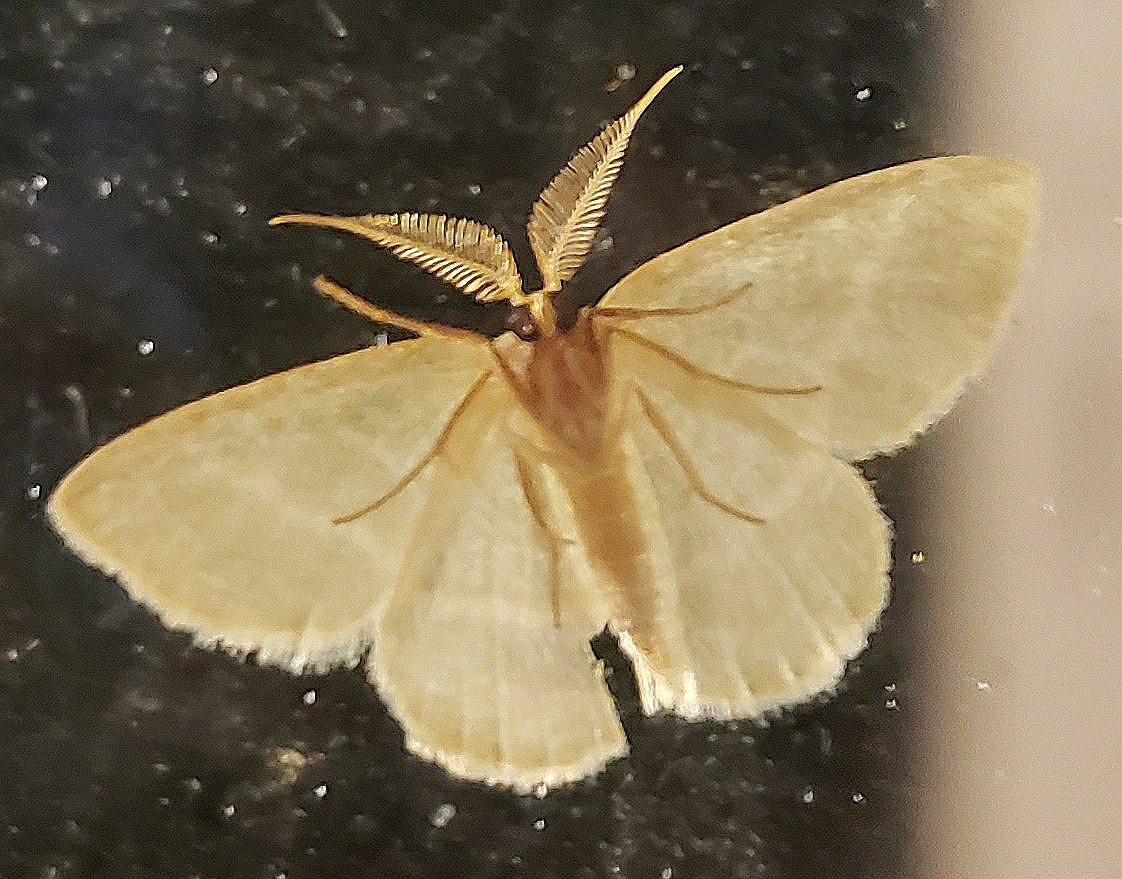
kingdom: Animalia
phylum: Arthropoda
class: Insecta
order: Lepidoptera
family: Geometridae
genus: Chlorochlamys
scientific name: Chlorochlamys chloroleucaria
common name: Blackberry looper
